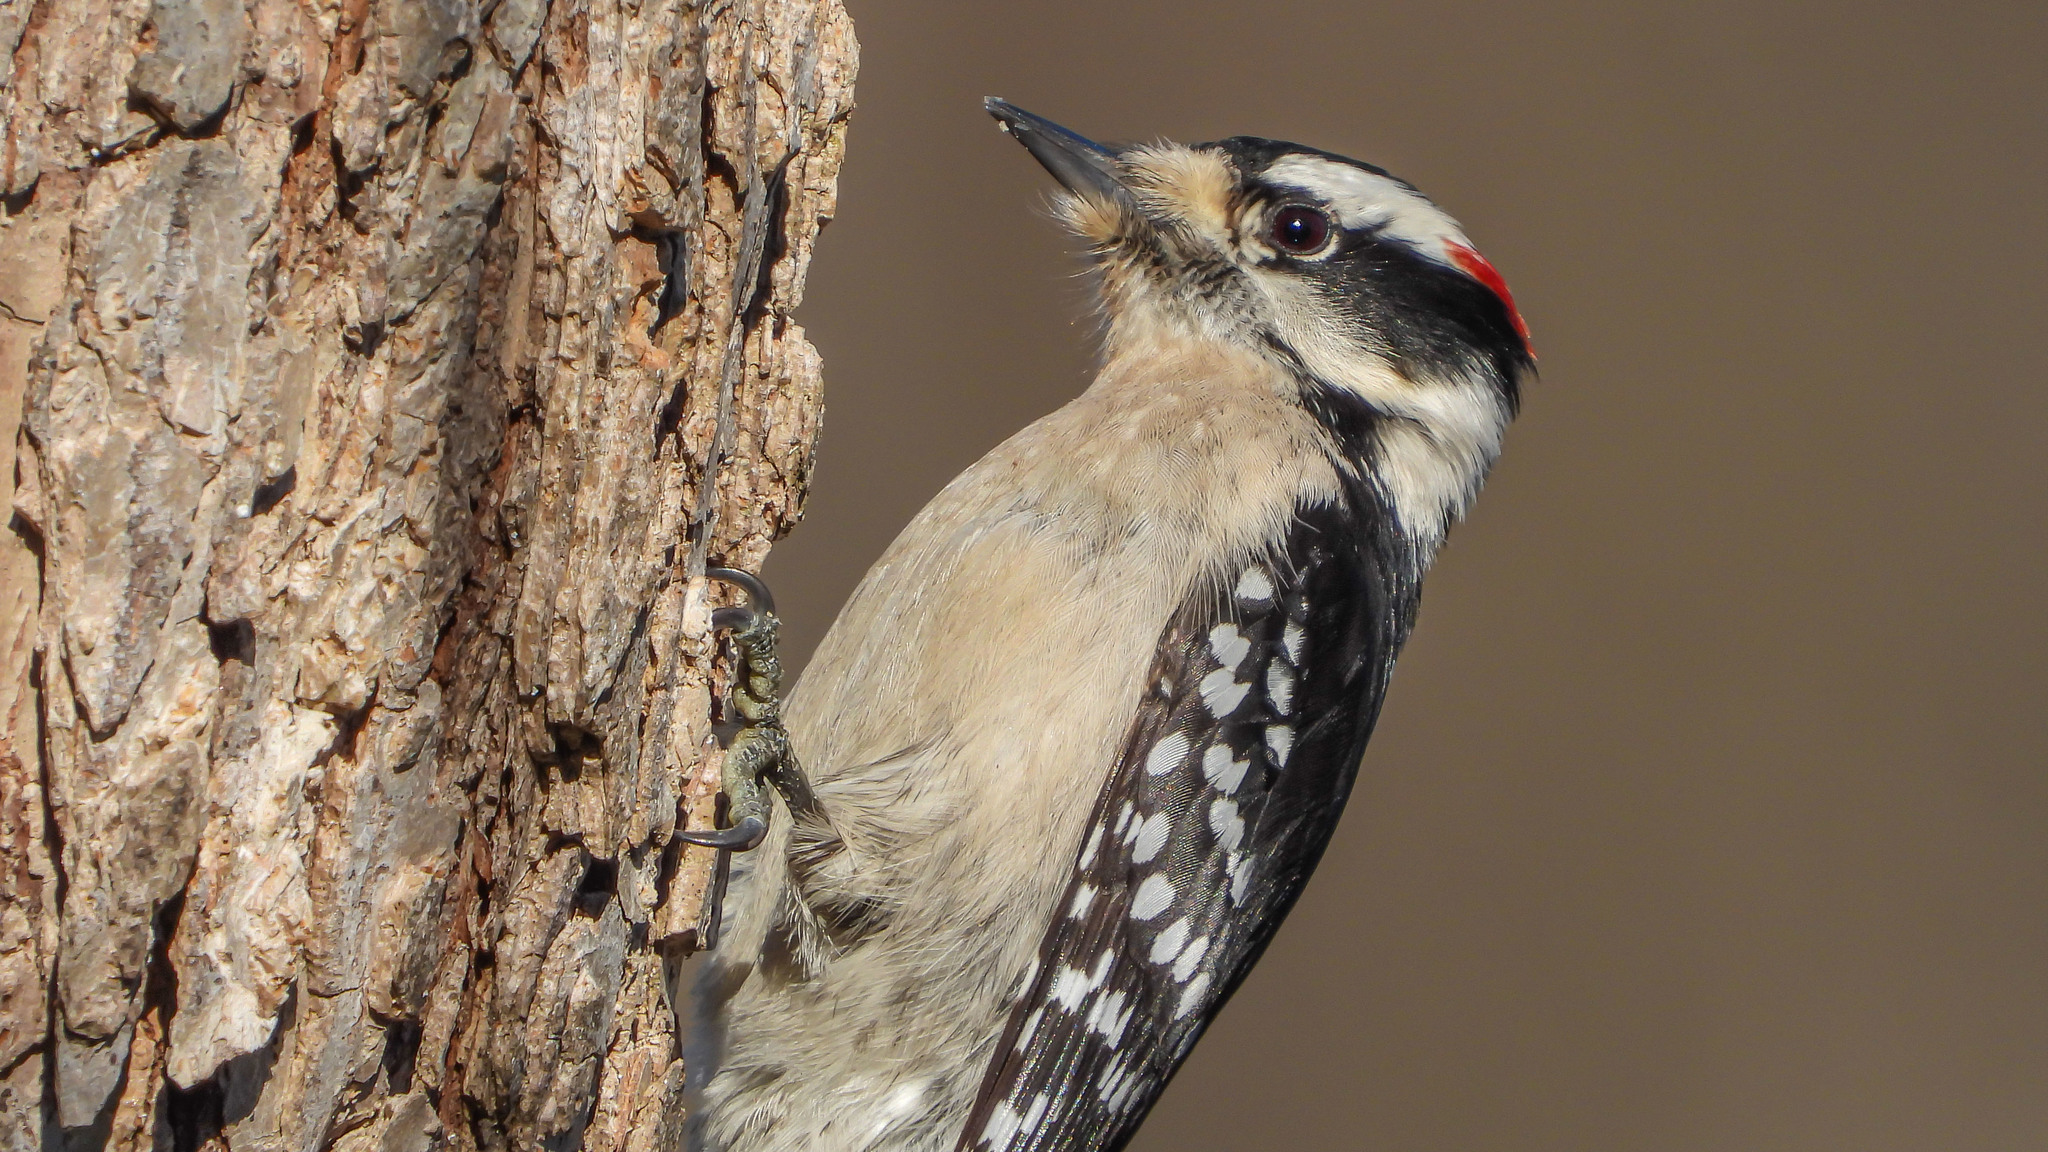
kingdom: Animalia
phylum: Chordata
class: Aves
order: Piciformes
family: Picidae
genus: Dryobates
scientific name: Dryobates pubescens
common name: Downy woodpecker
